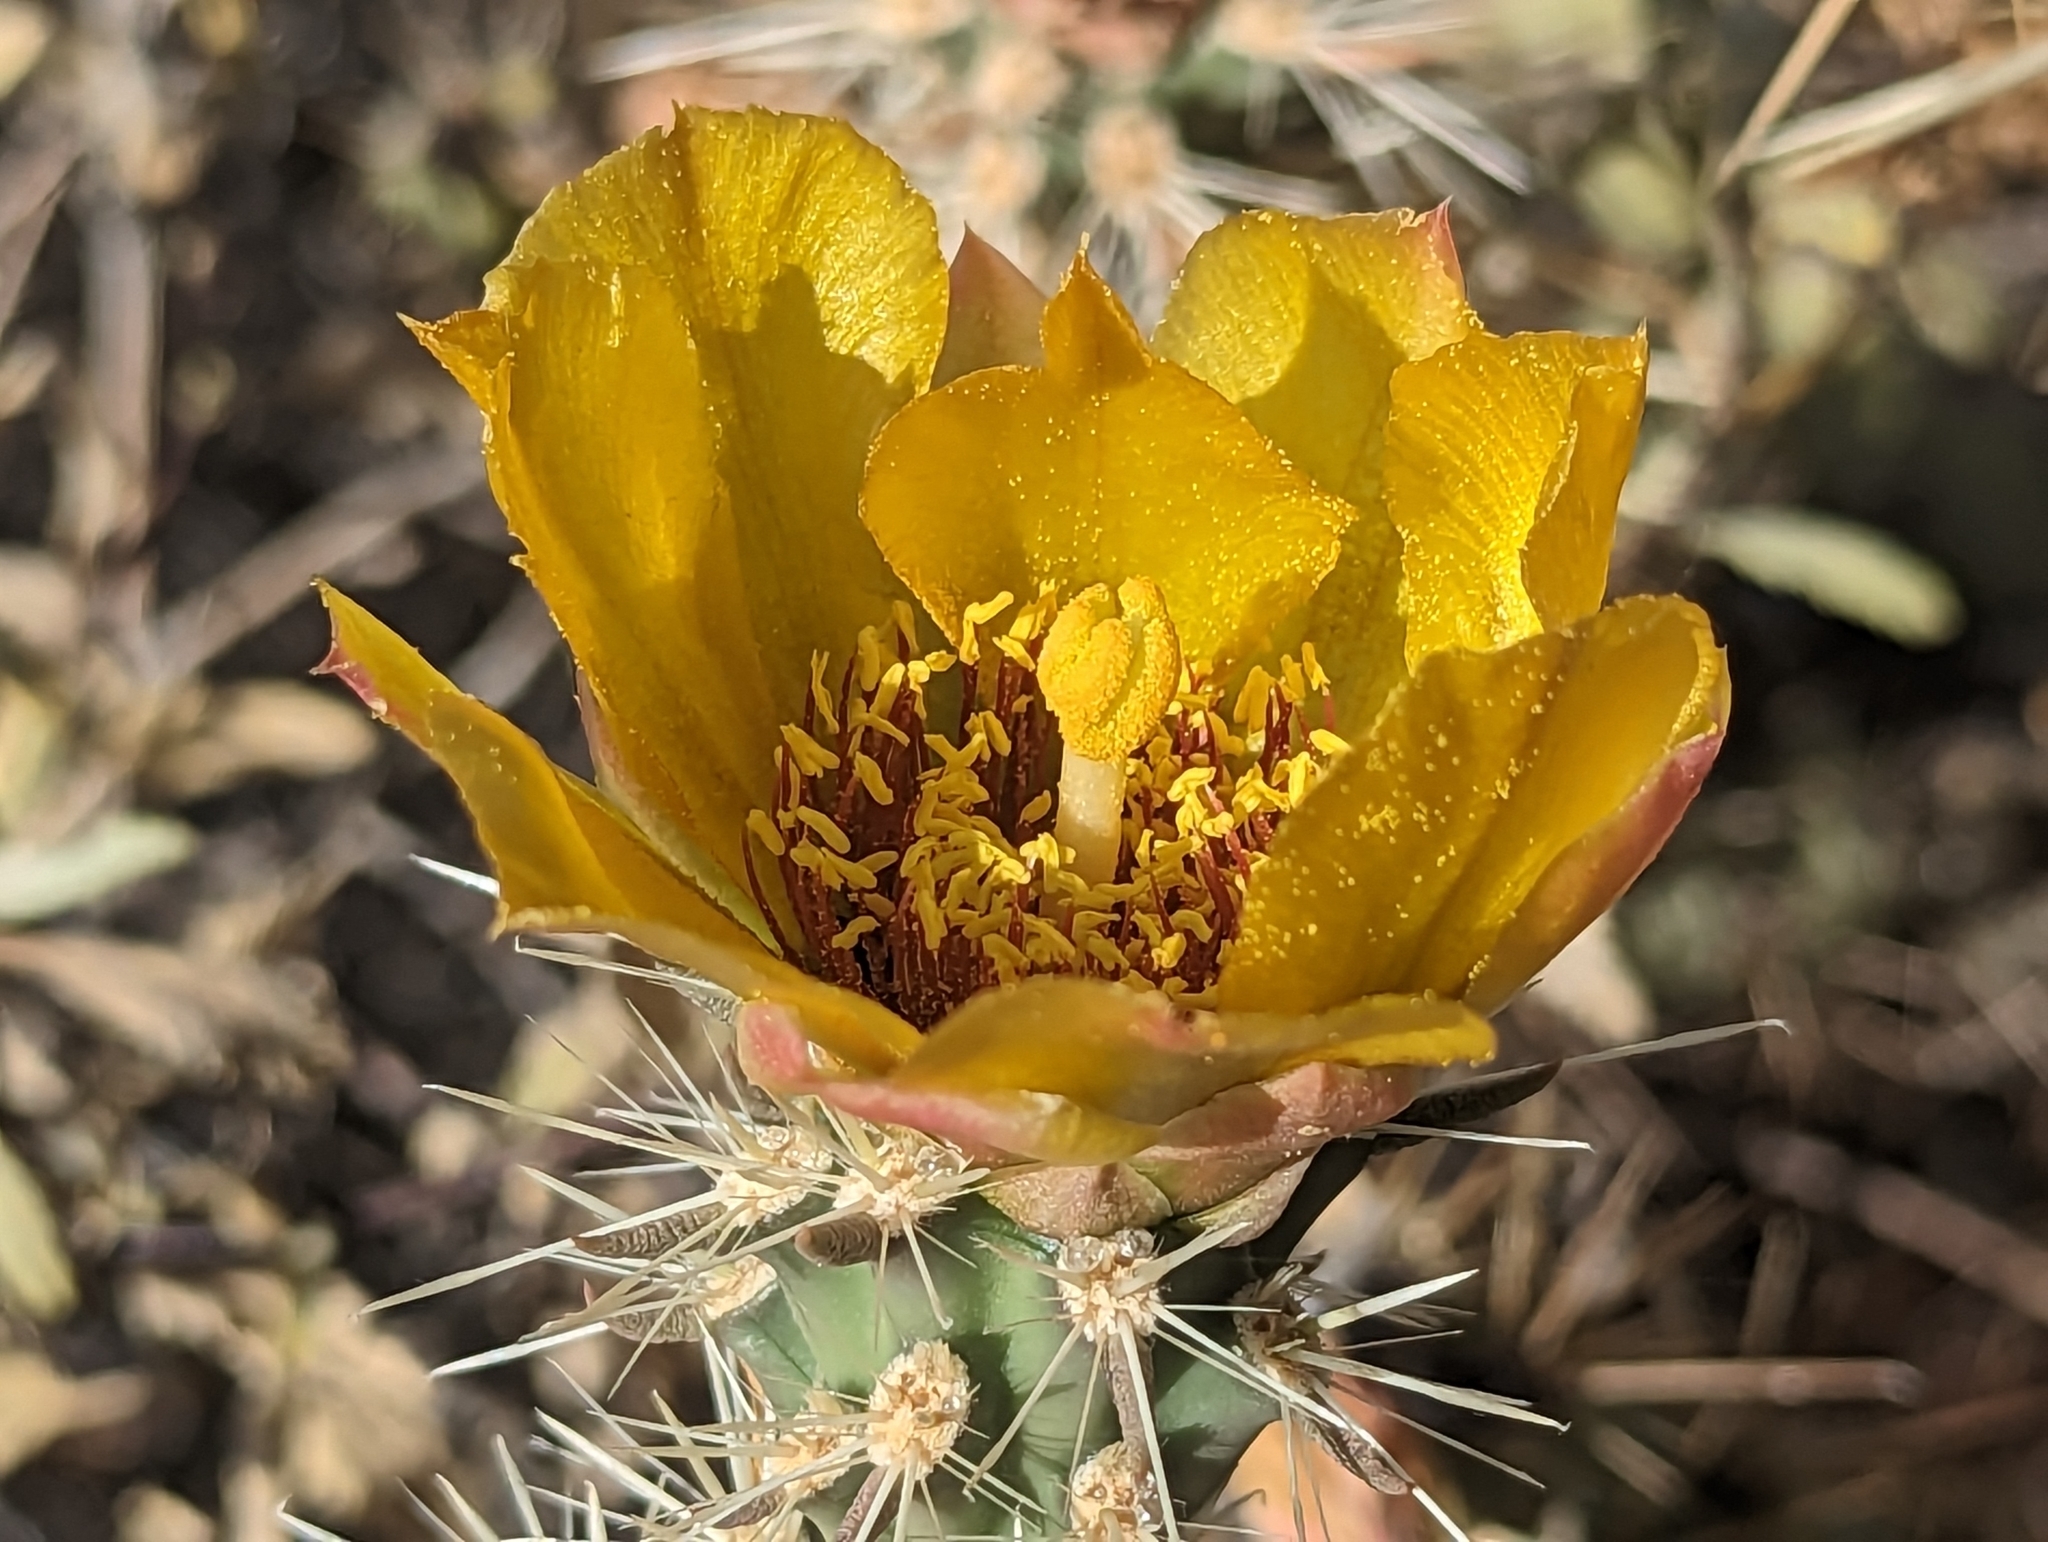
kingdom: Plantae
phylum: Tracheophyta
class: Magnoliopsida
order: Caryophyllales
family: Cactaceae
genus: Cylindropuntia
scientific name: Cylindropuntia acanthocarpa
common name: Buckhorn cholla
